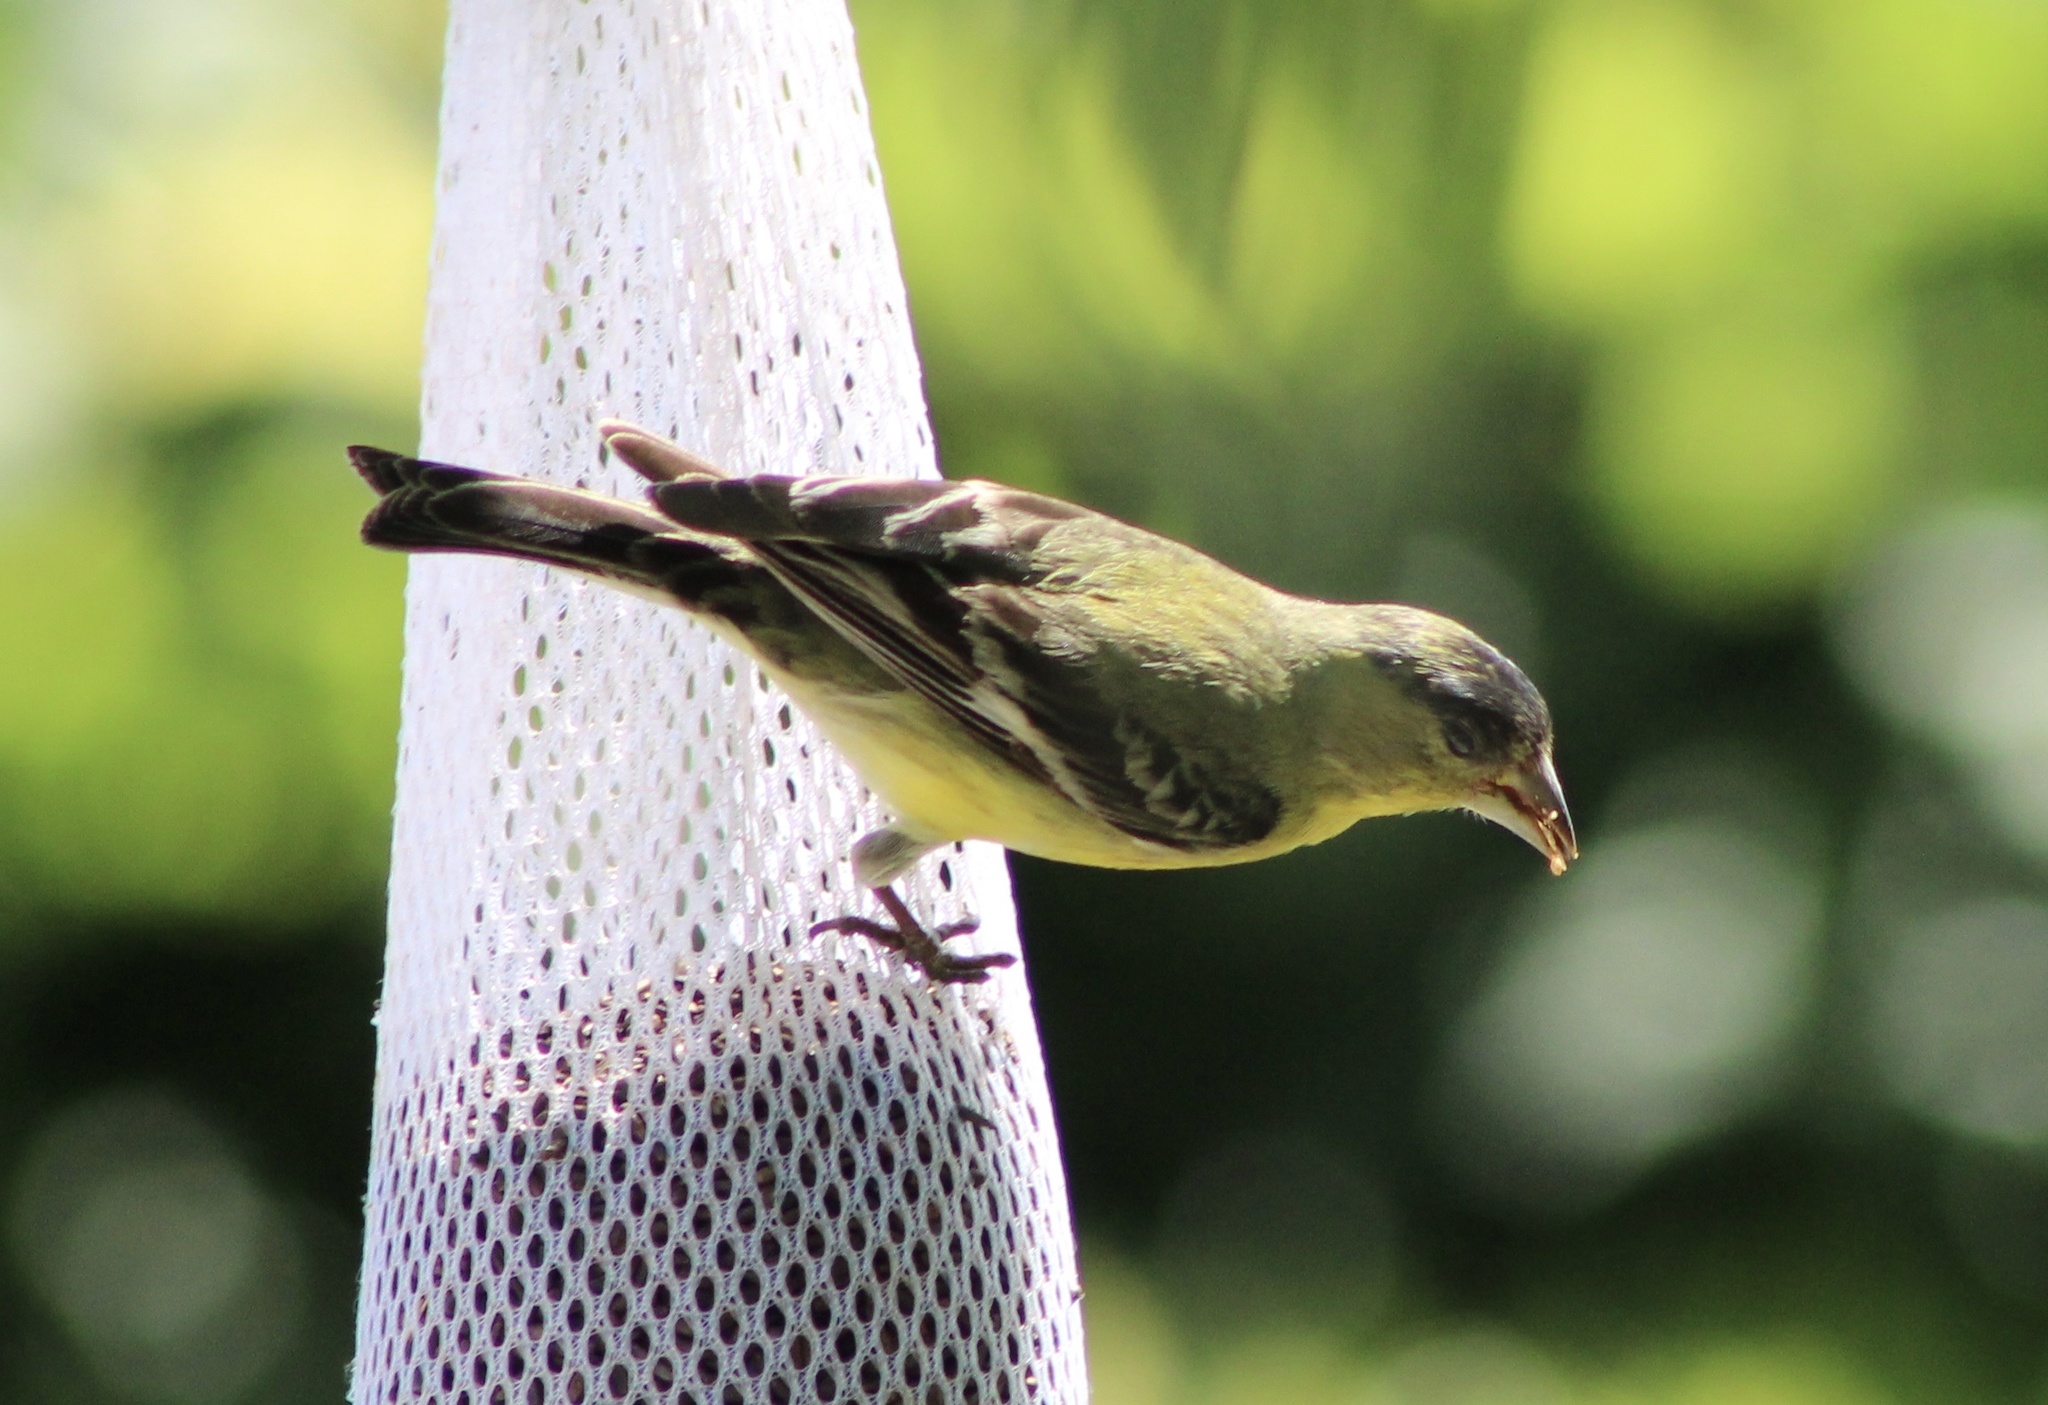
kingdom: Animalia
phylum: Chordata
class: Aves
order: Passeriformes
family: Fringillidae
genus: Spinus
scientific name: Spinus psaltria
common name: Lesser goldfinch
